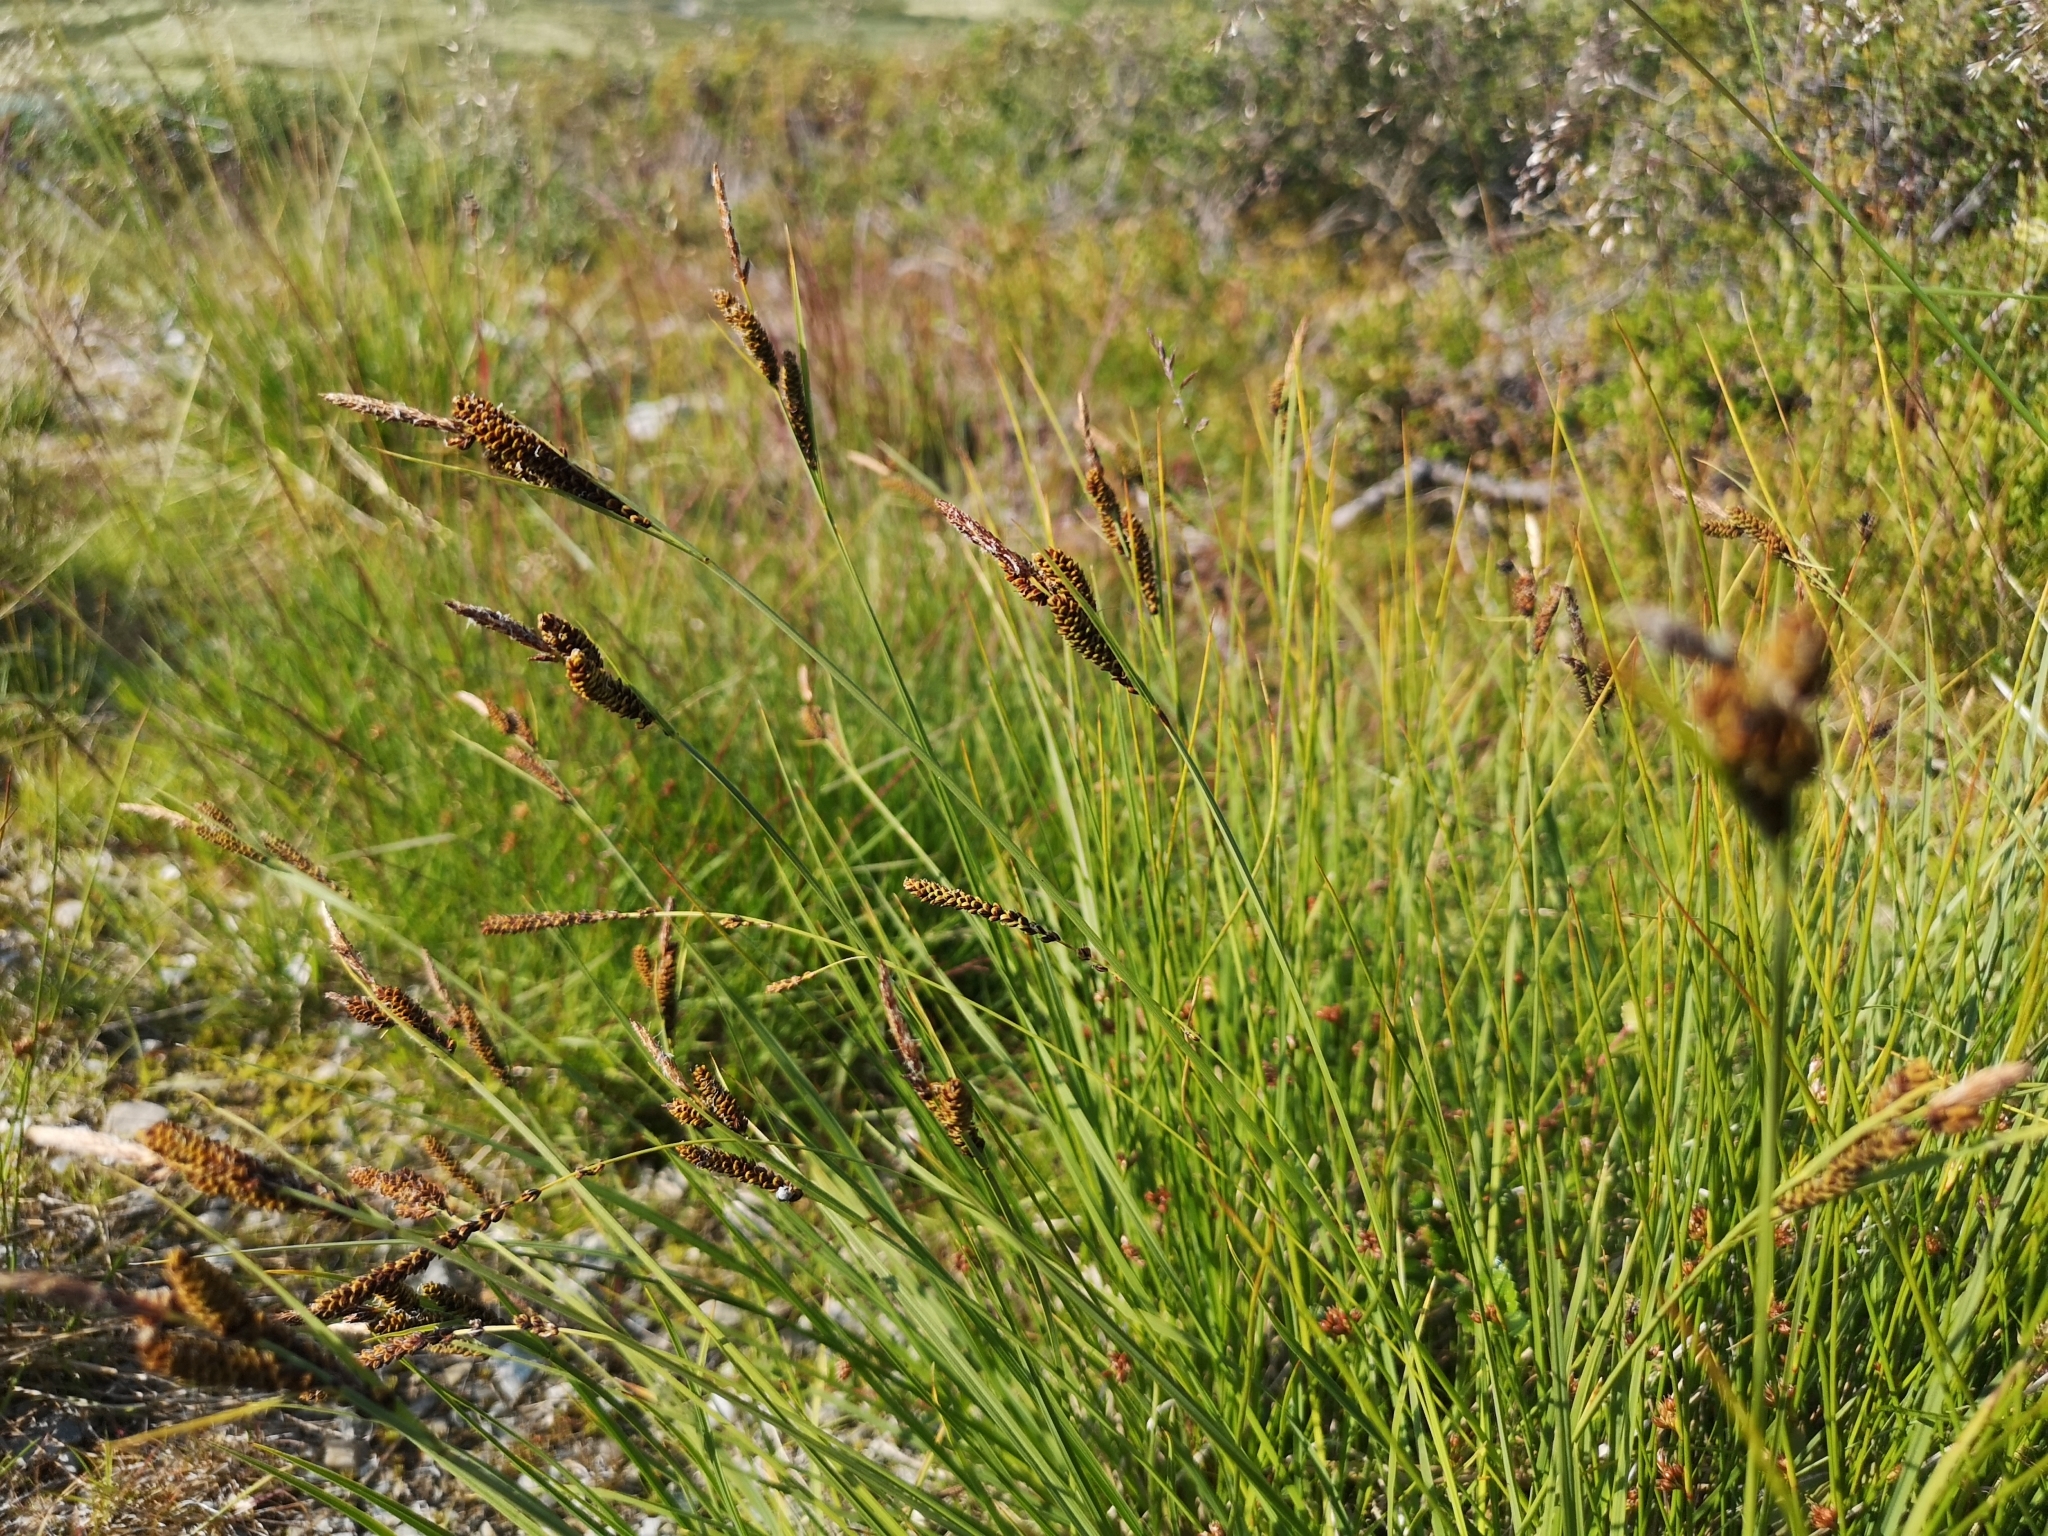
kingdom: Plantae
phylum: Tracheophyta
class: Liliopsida
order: Poales
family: Cyperaceae
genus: Carex
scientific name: Carex nigra
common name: Common sedge
